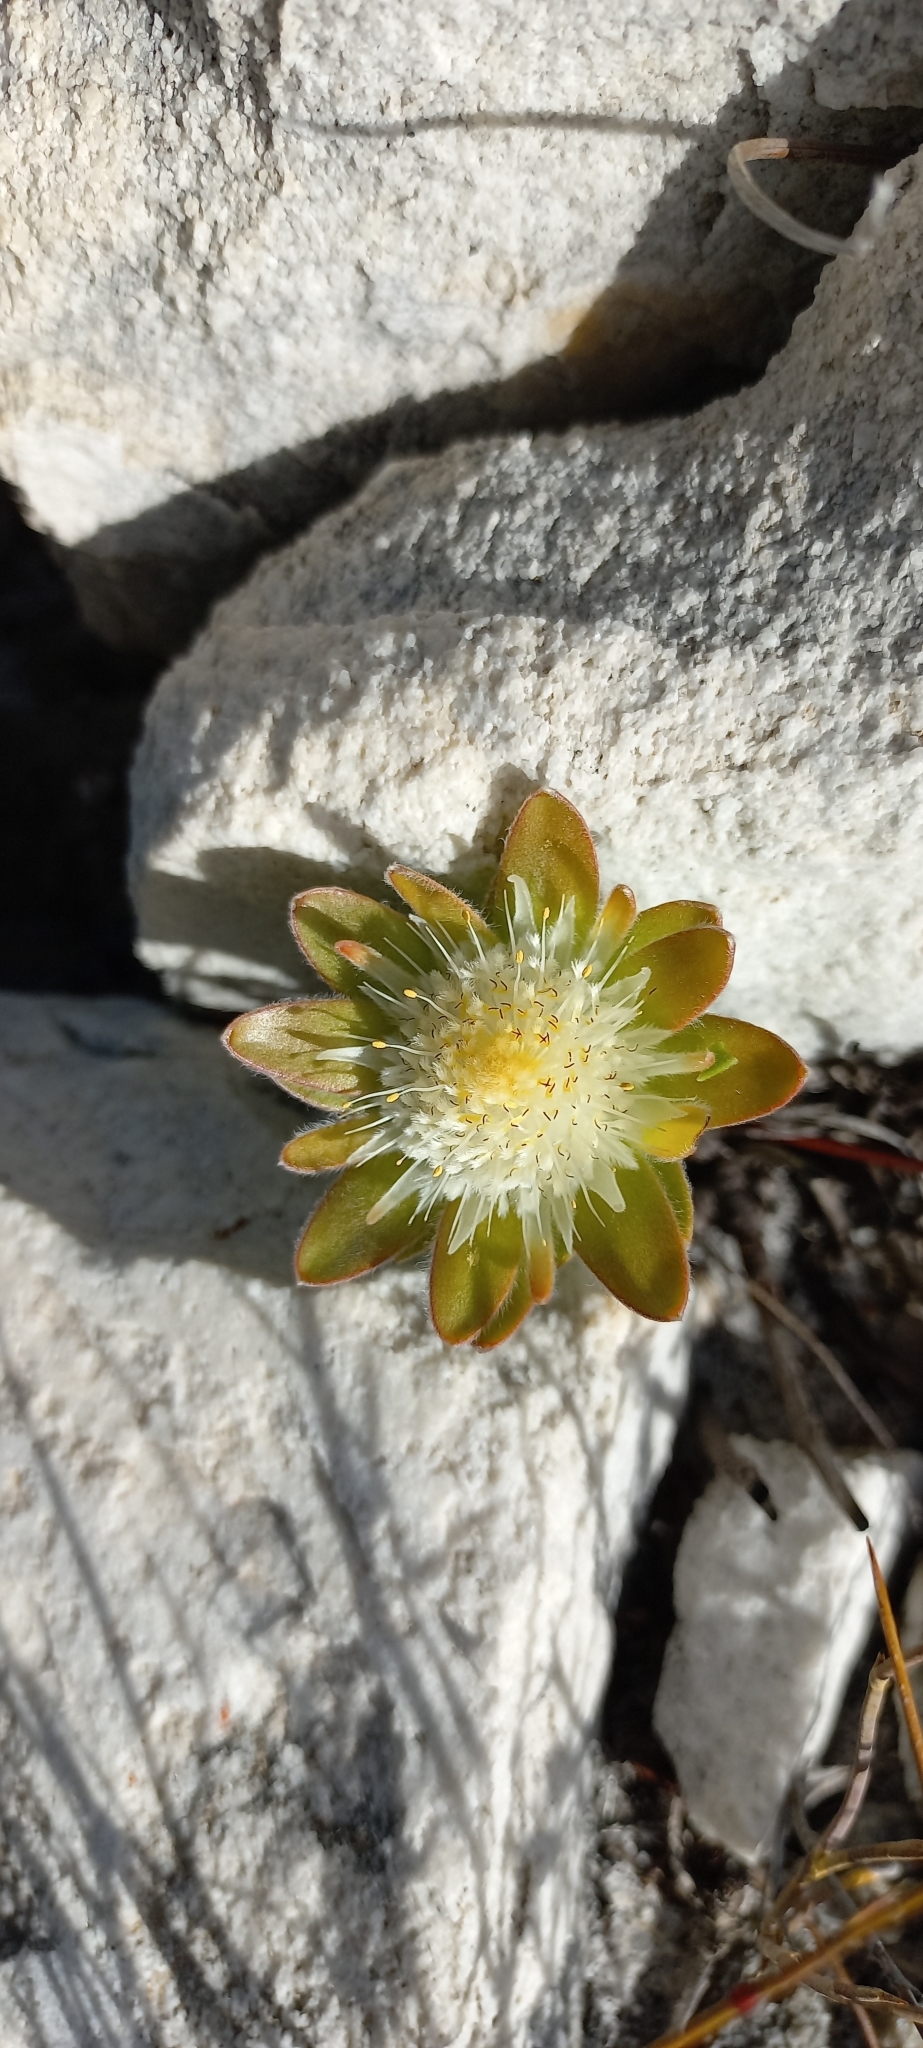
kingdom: Plantae
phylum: Tracheophyta
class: Magnoliopsida
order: Proteales
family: Proteaceae
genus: Diastella
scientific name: Diastella thymelaeoides
